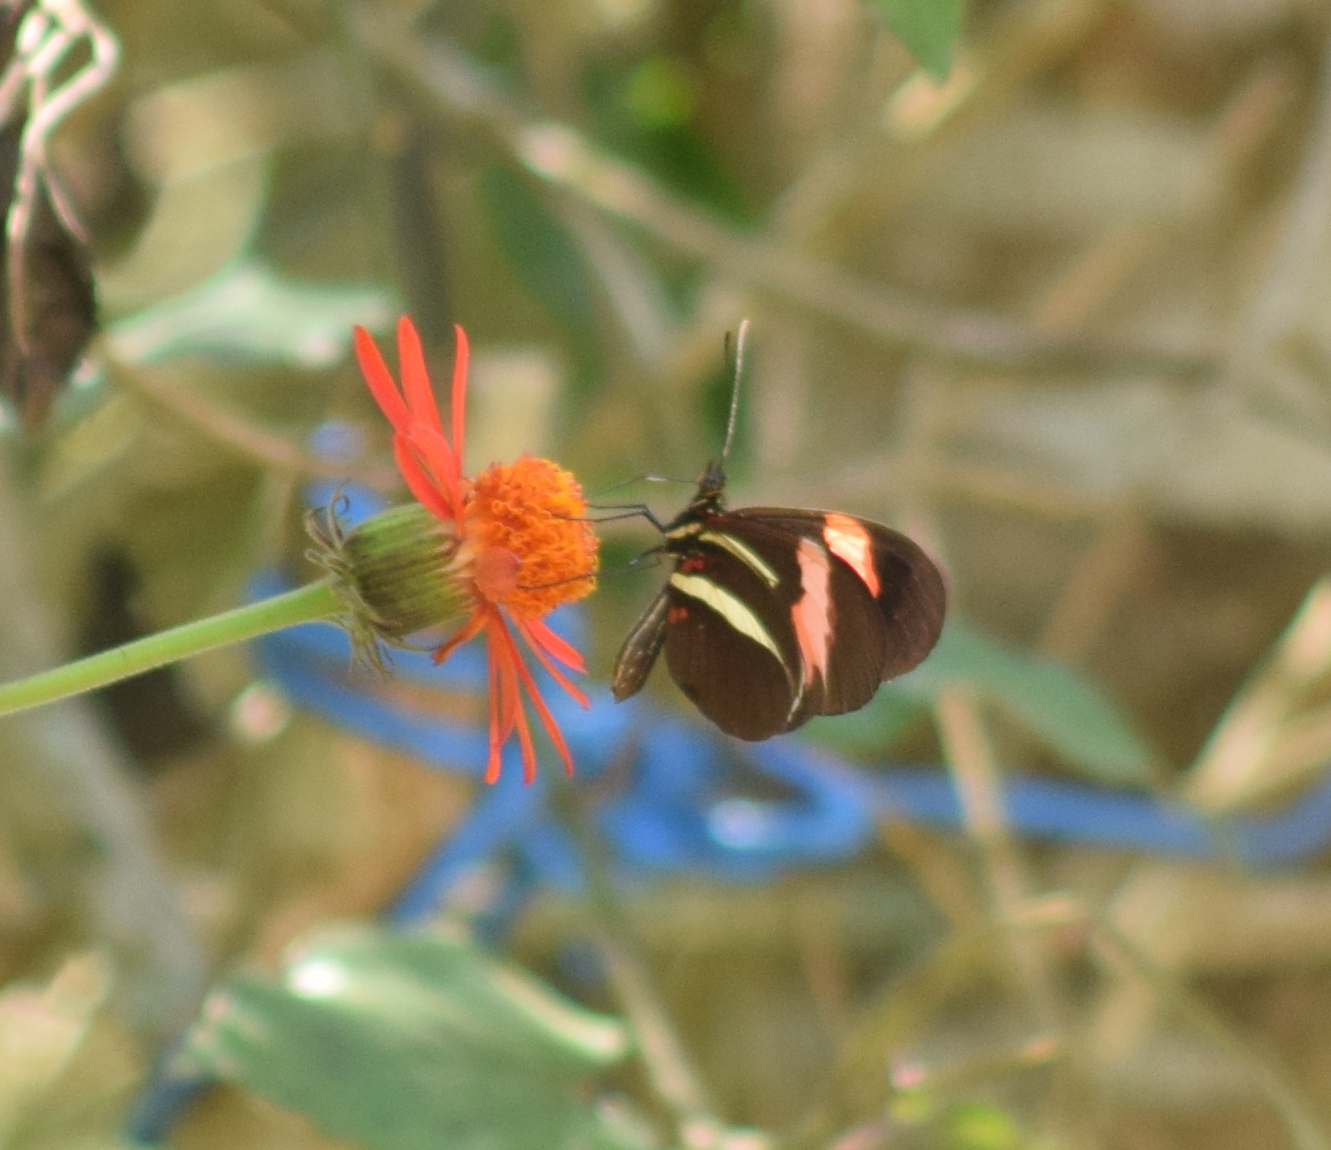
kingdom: Animalia
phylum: Arthropoda
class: Insecta
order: Lepidoptera
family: Nymphalidae
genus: Heliconius
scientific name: Heliconius erato
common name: Common patch longwing
